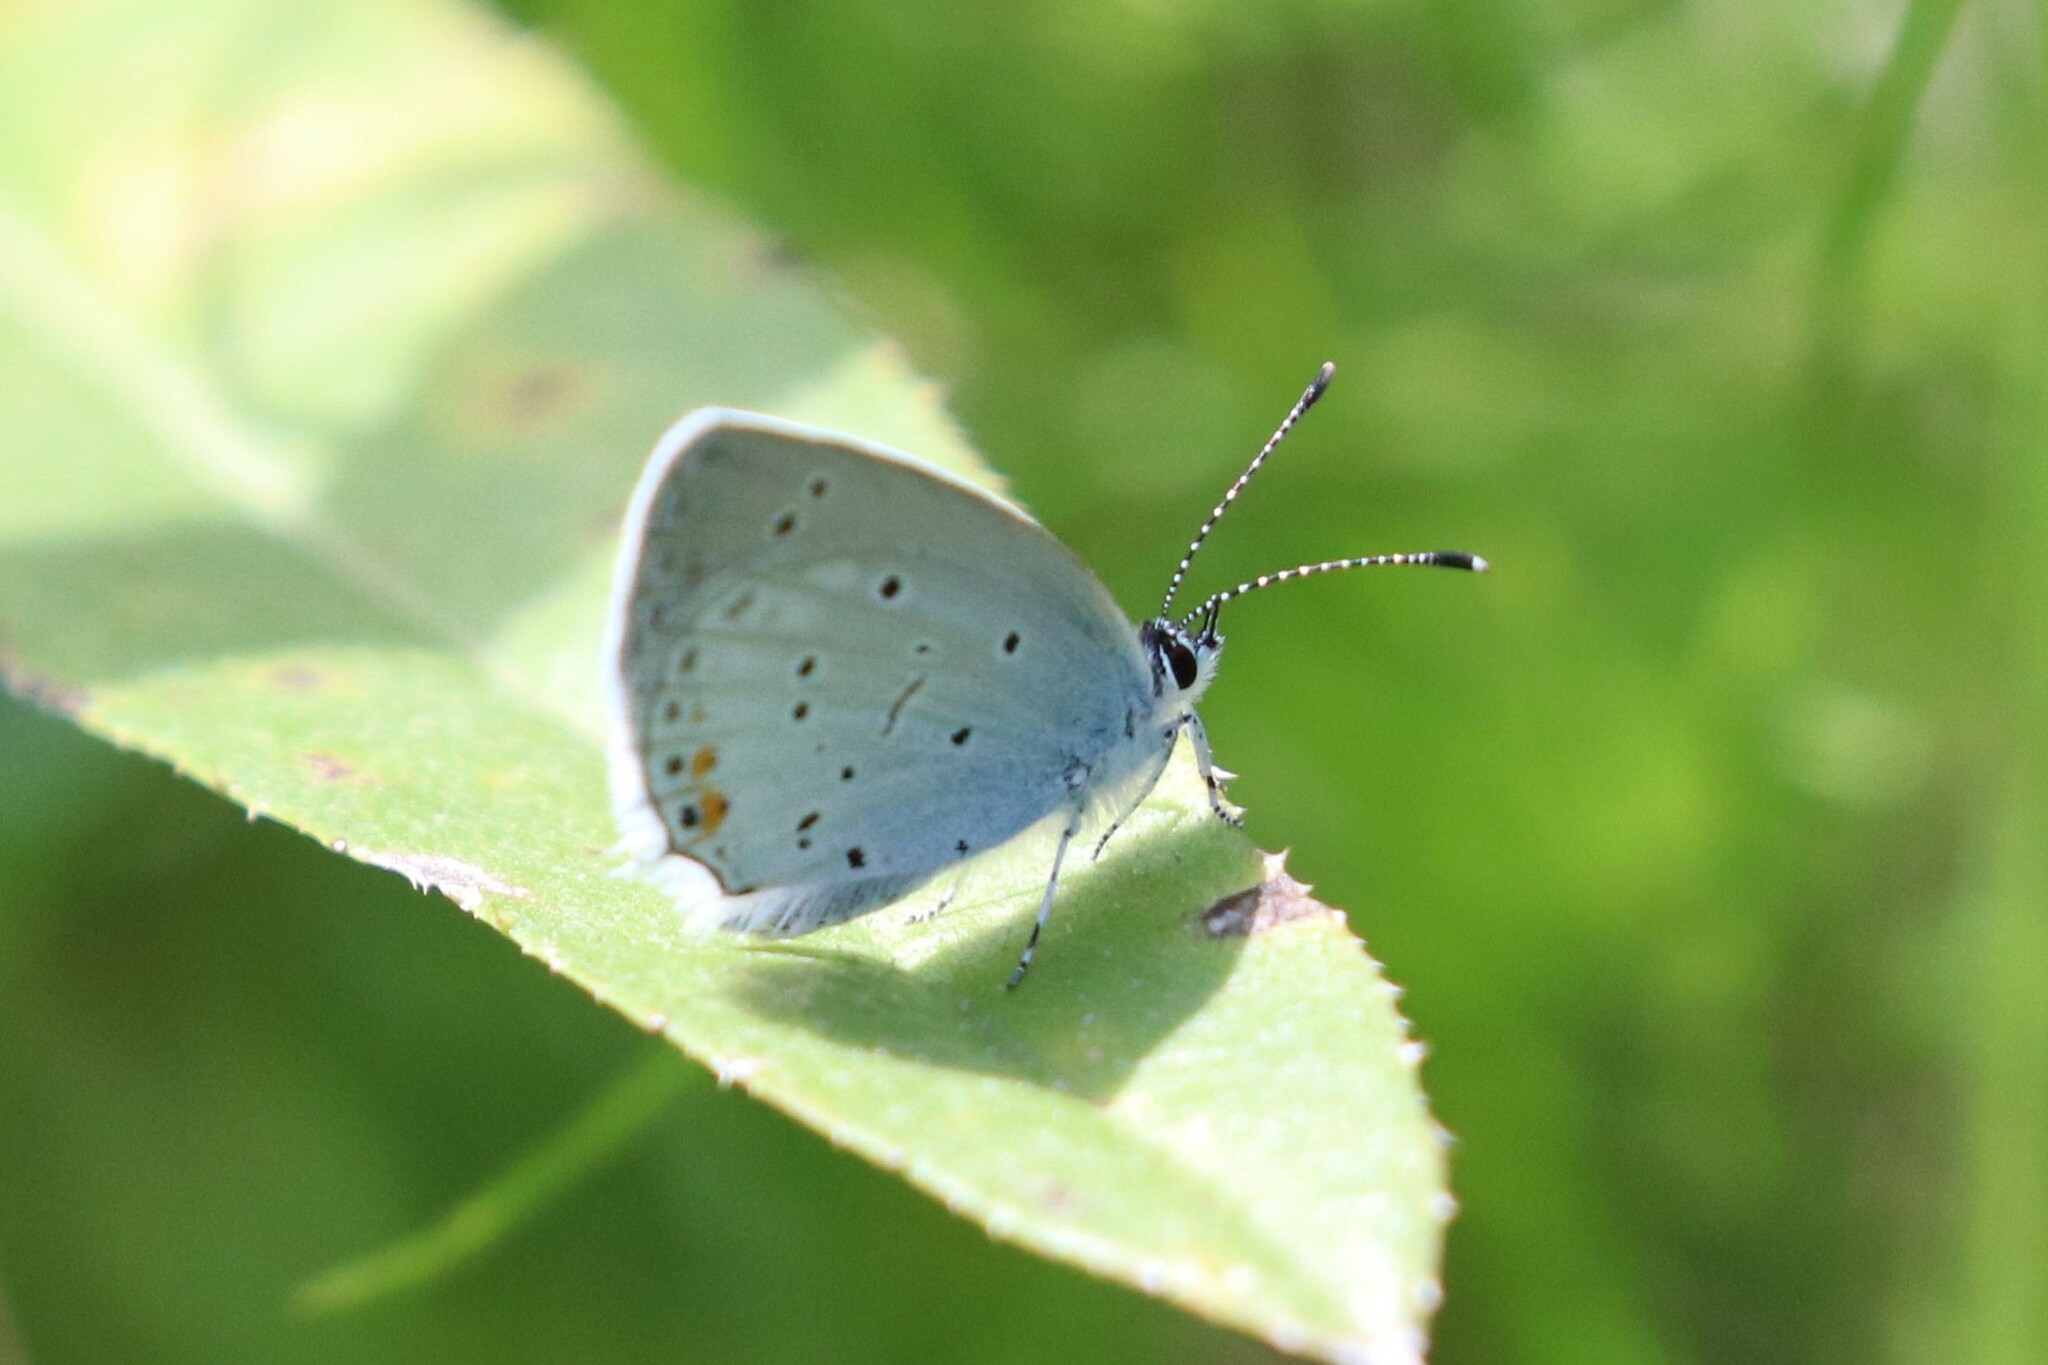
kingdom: Animalia
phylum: Arthropoda
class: Insecta
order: Lepidoptera
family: Lycaenidae
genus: Elkalyce
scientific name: Elkalyce argiades
